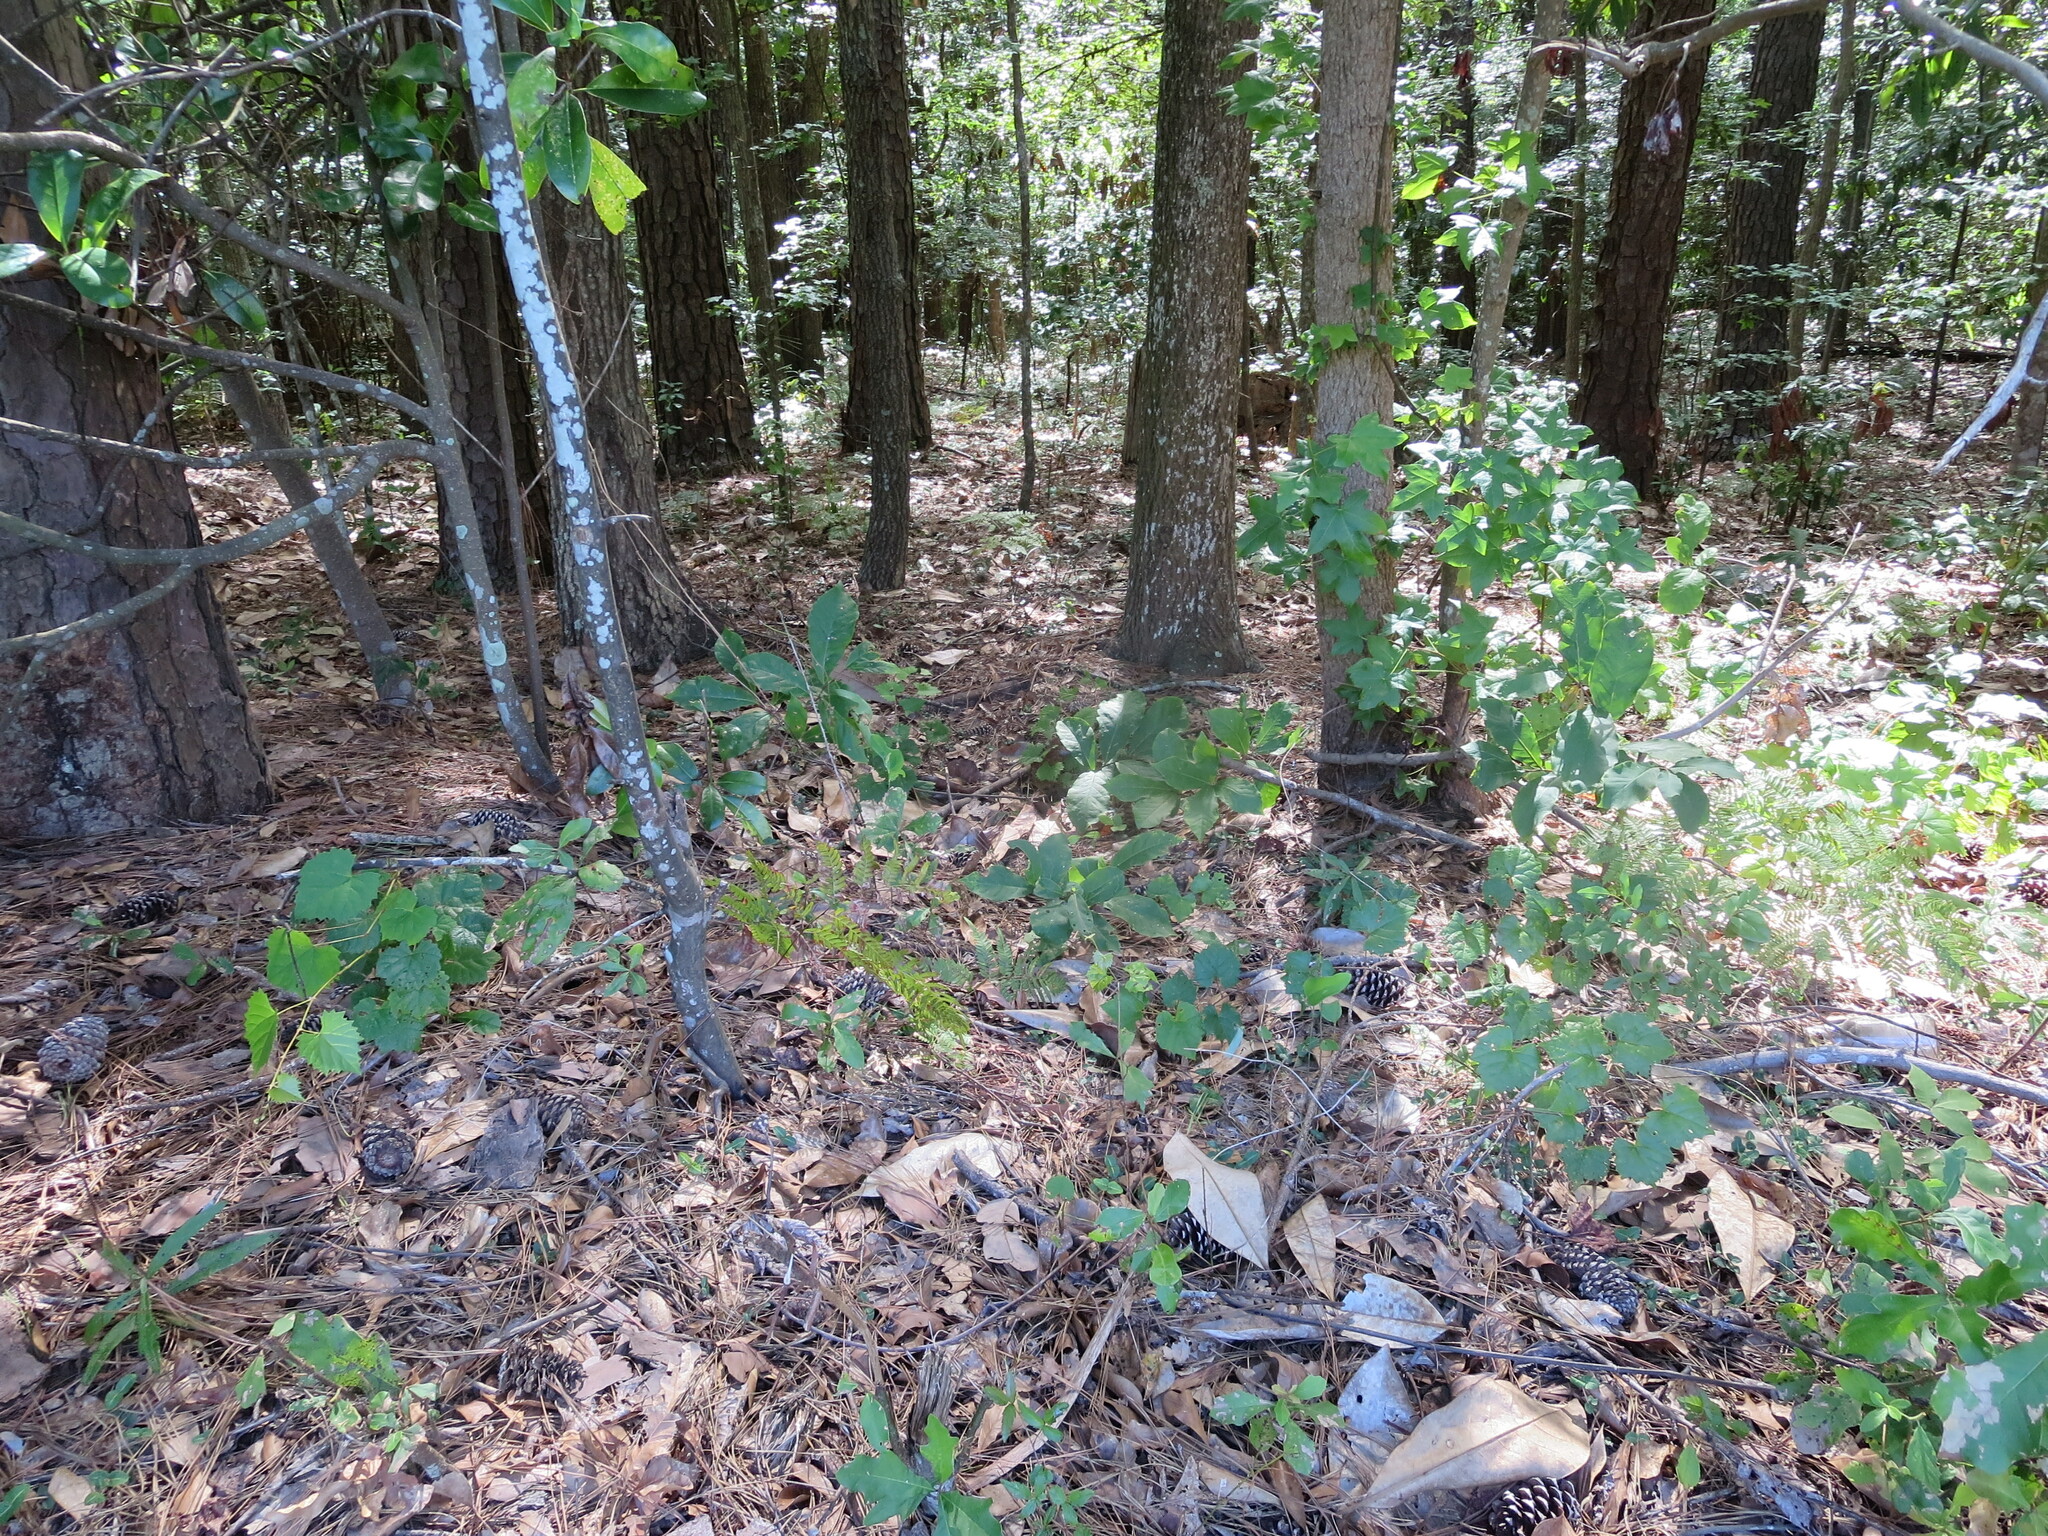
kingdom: Plantae
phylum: Tracheophyta
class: Magnoliopsida
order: Magnoliales
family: Annonaceae
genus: Asimina
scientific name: Asimina parviflora
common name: Dwarf pawpaw
